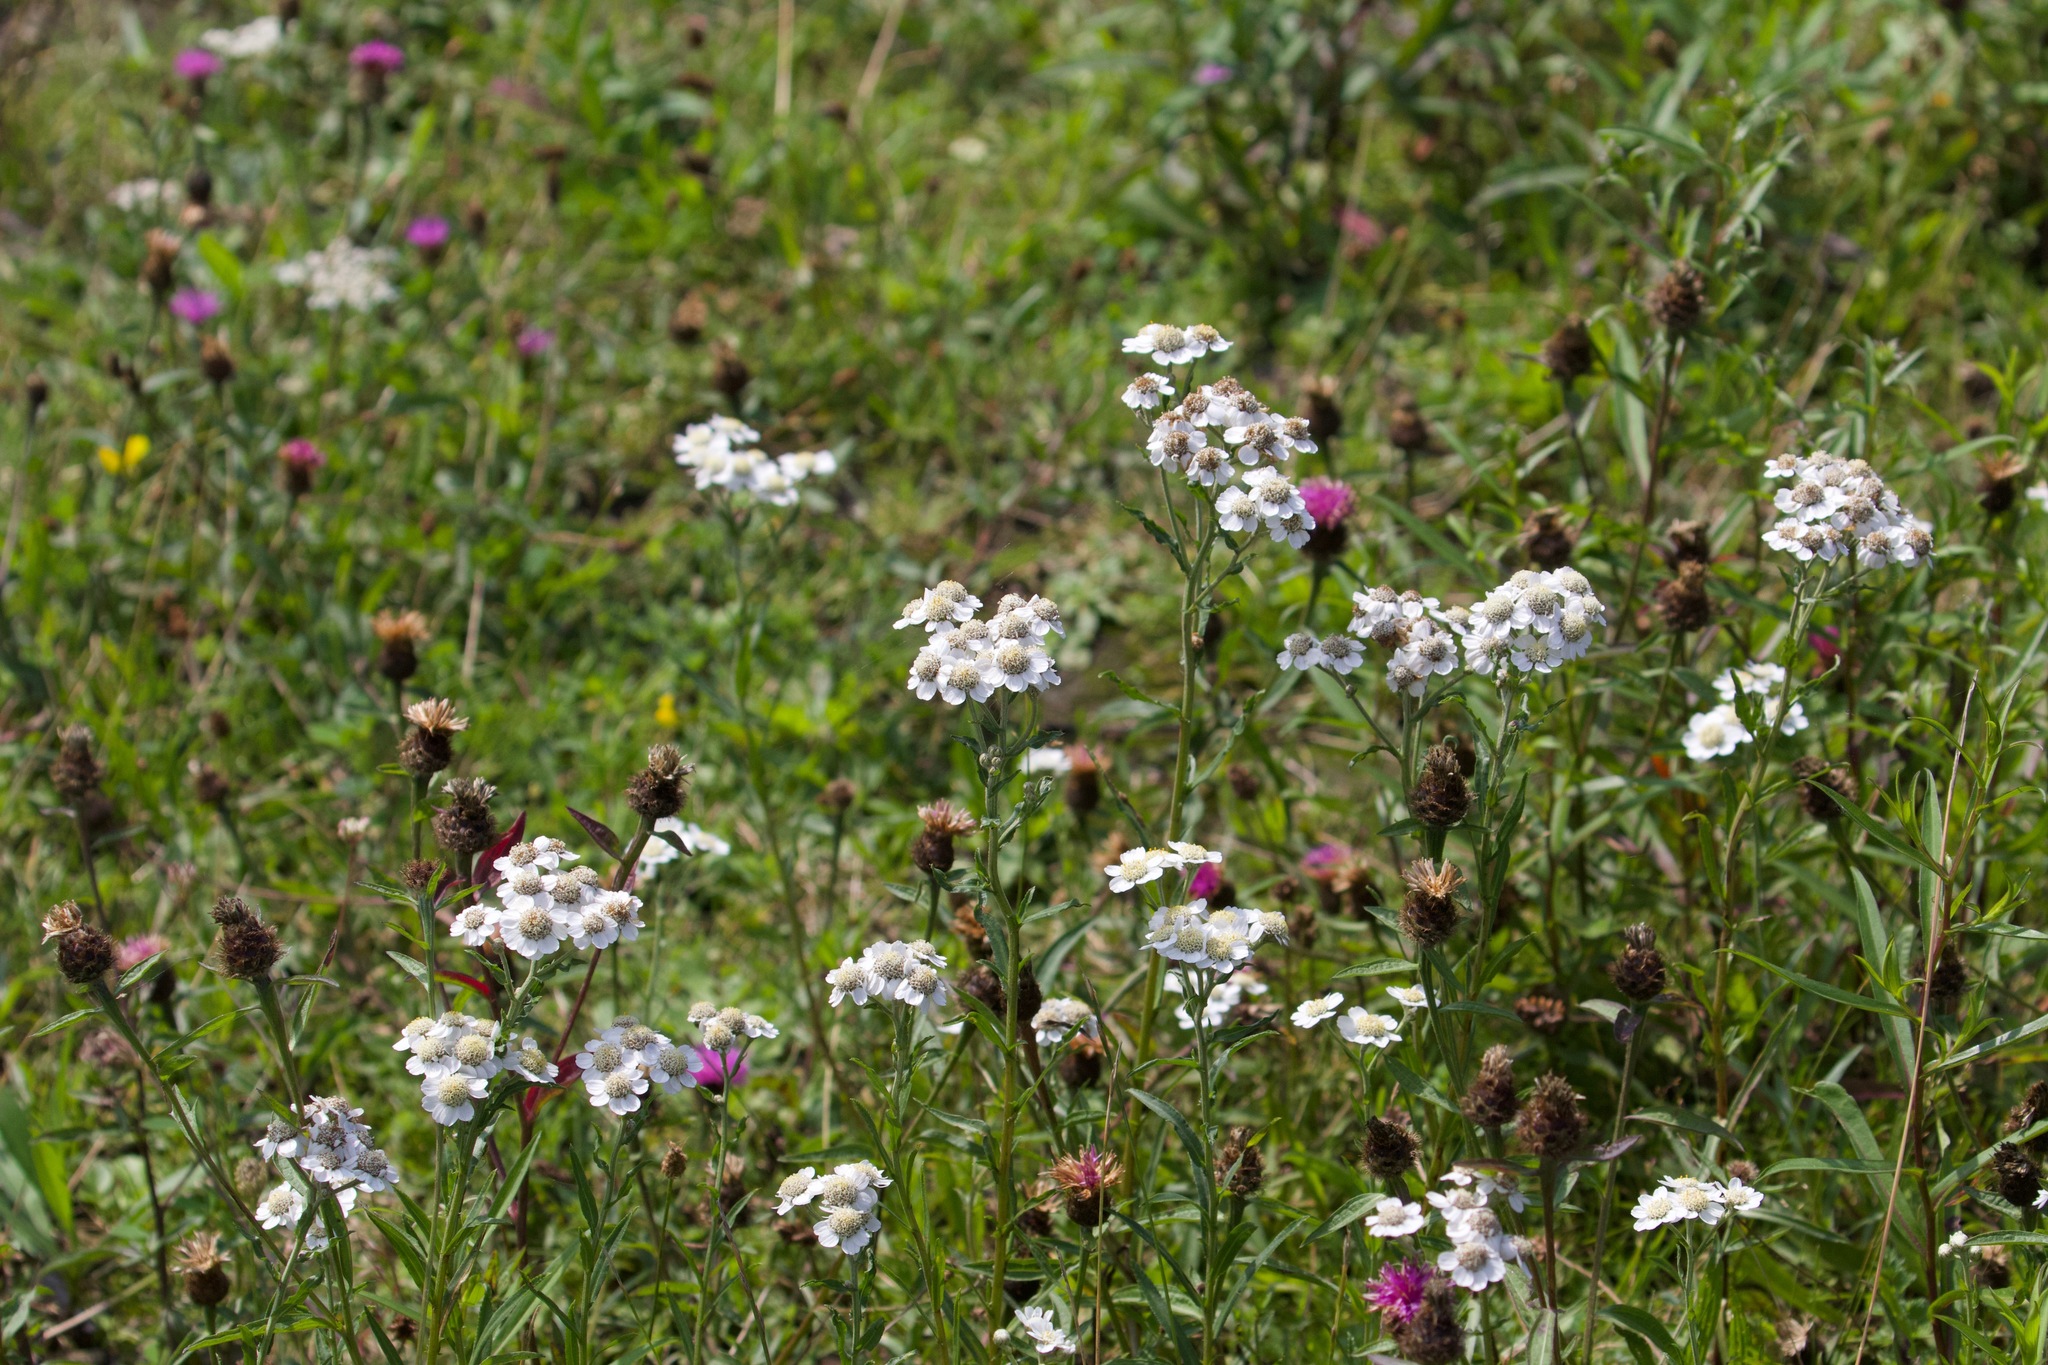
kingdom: Plantae
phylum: Tracheophyta
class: Magnoliopsida
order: Asterales
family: Asteraceae
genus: Achillea
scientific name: Achillea ptarmica
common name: Sneezeweed
